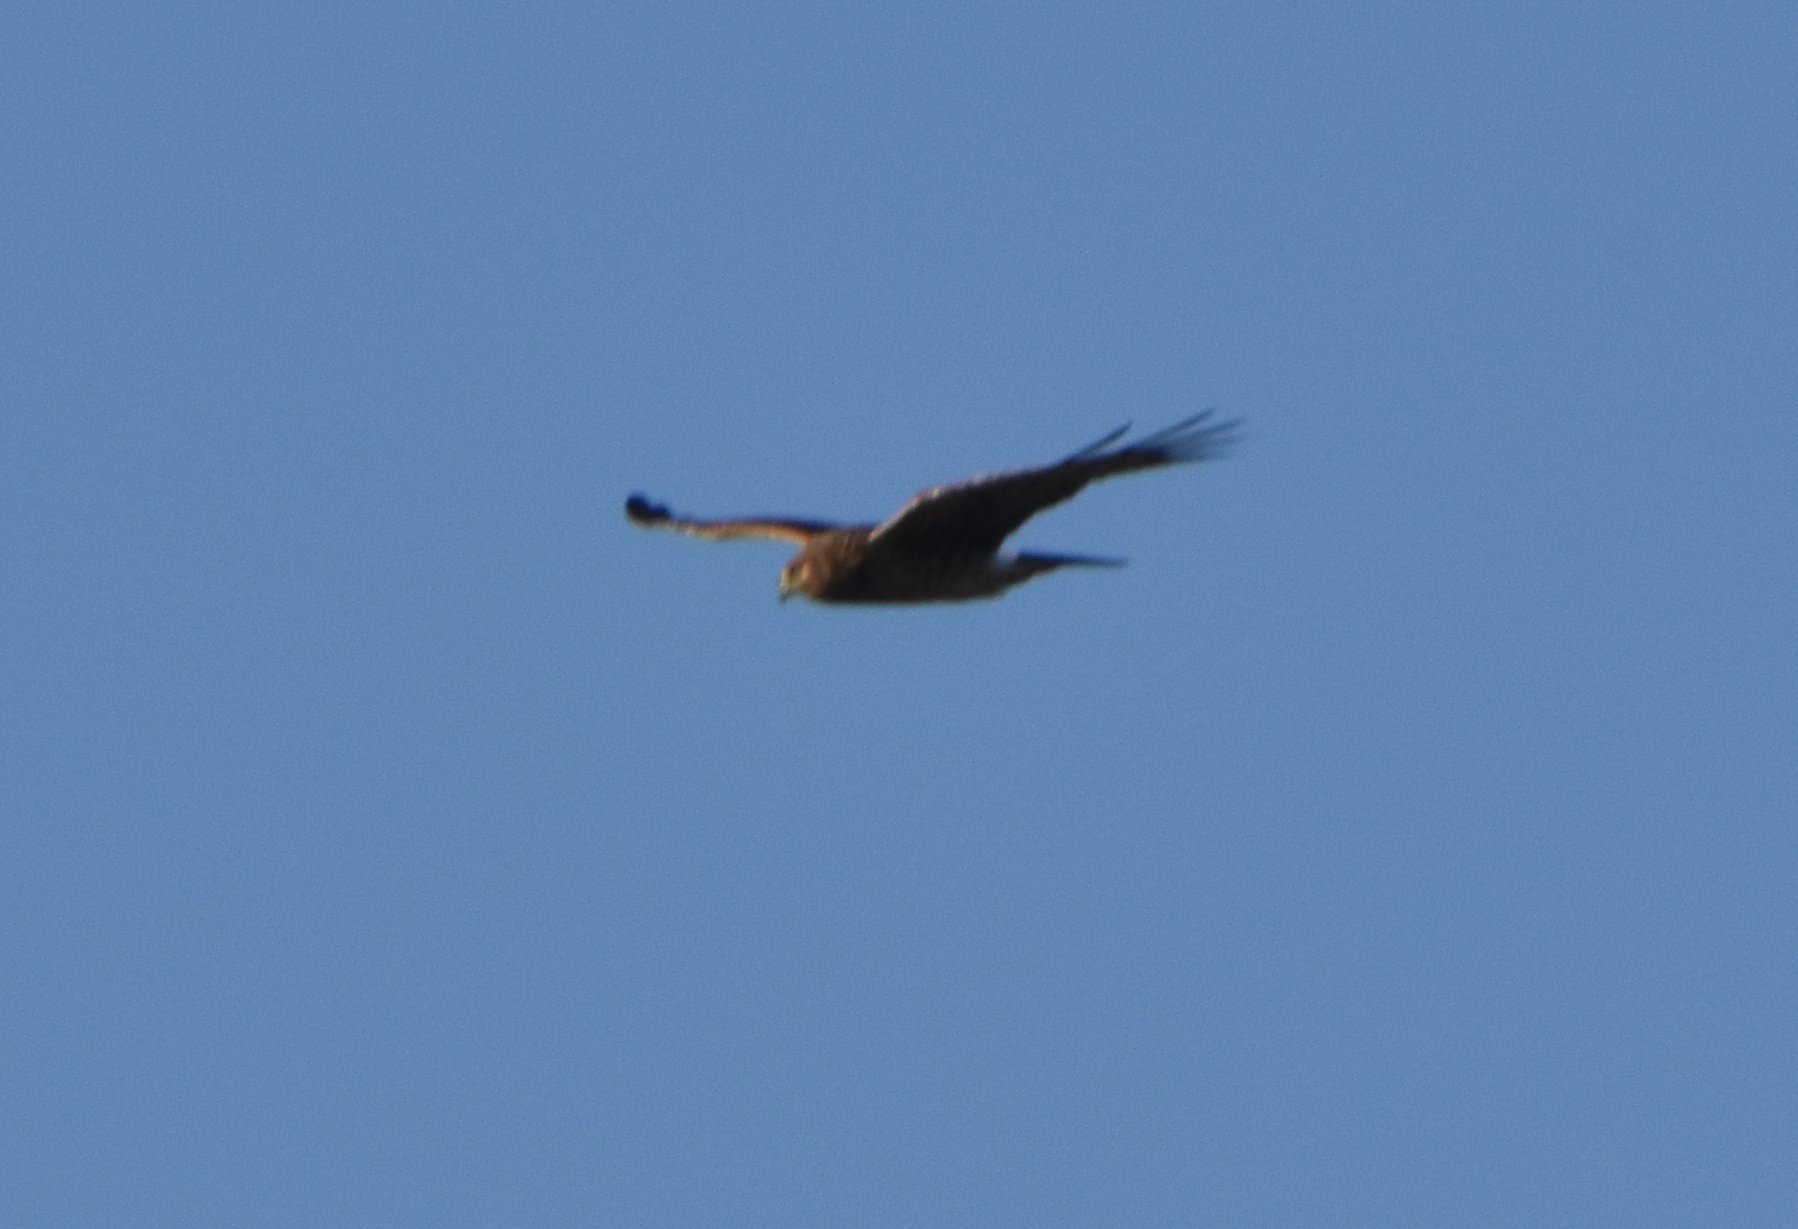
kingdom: Animalia
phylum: Chordata
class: Aves
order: Accipitriformes
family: Accipitridae
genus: Circus
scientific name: Circus cyaneus
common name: Hen harrier
